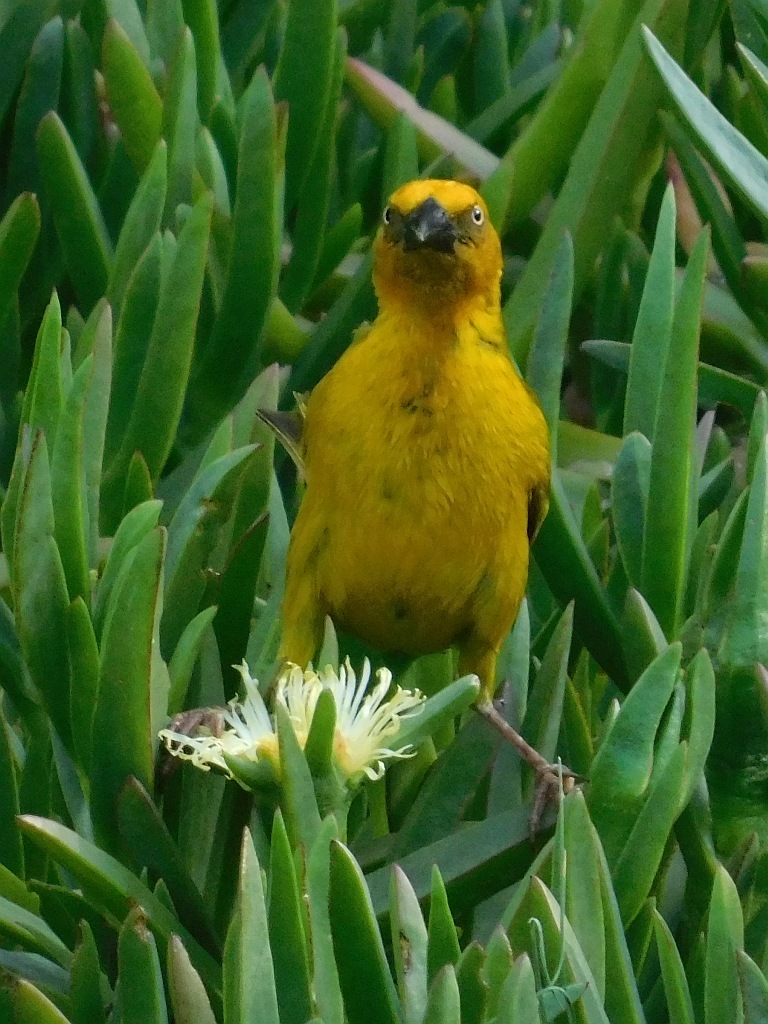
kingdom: Animalia
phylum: Chordata
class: Aves
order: Passeriformes
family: Ploceidae
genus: Ploceus
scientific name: Ploceus capensis
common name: Cape weaver
